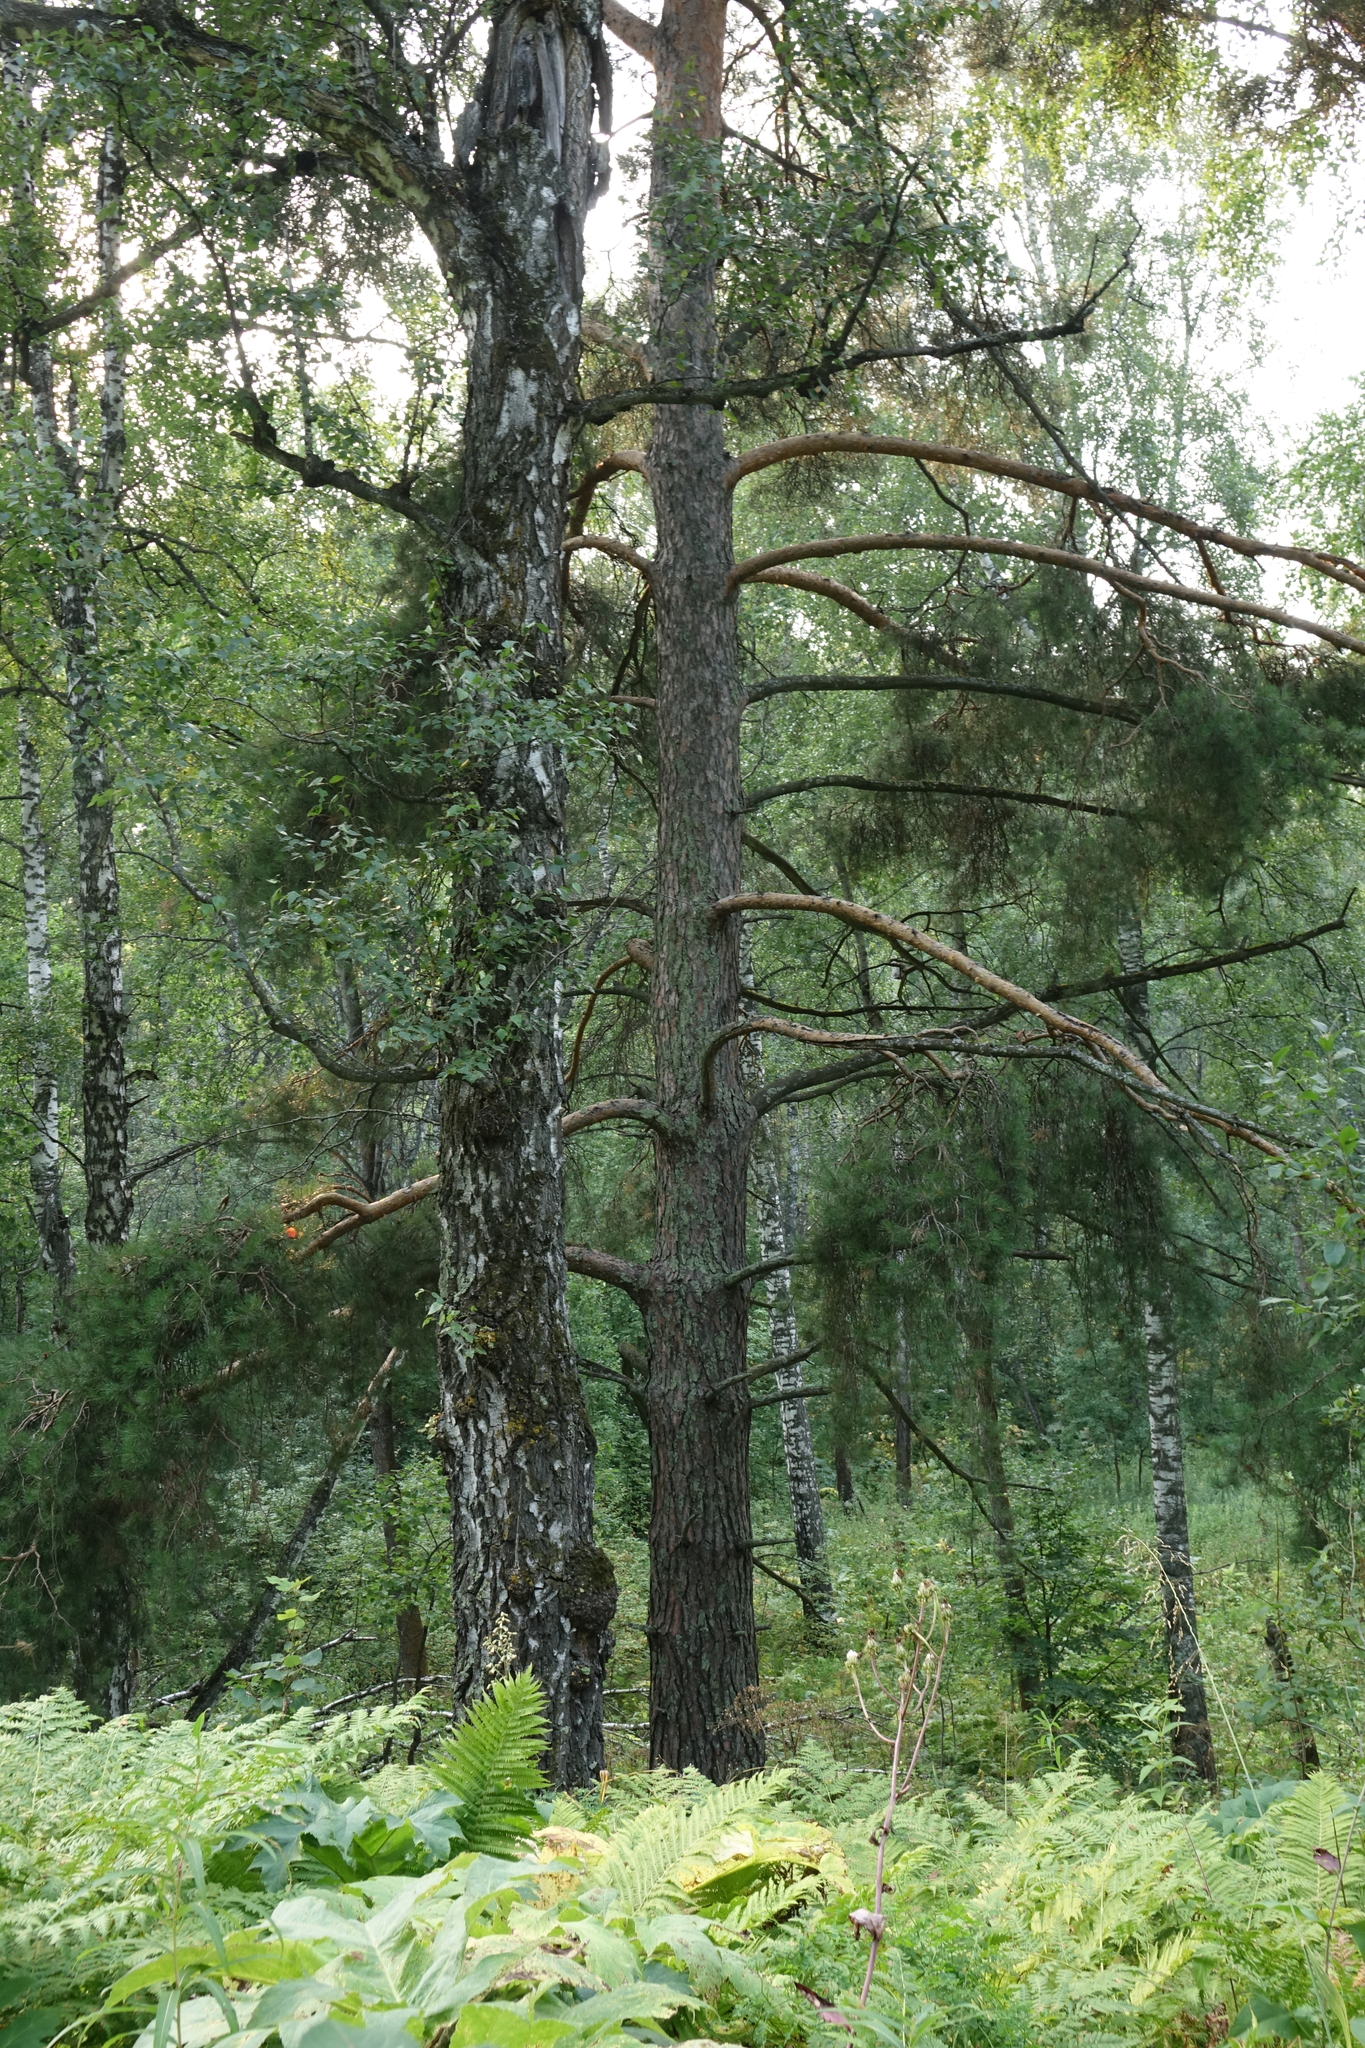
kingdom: Plantae
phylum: Tracheophyta
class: Magnoliopsida
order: Fagales
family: Betulaceae
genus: Betula
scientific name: Betula pendula
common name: Silver birch
